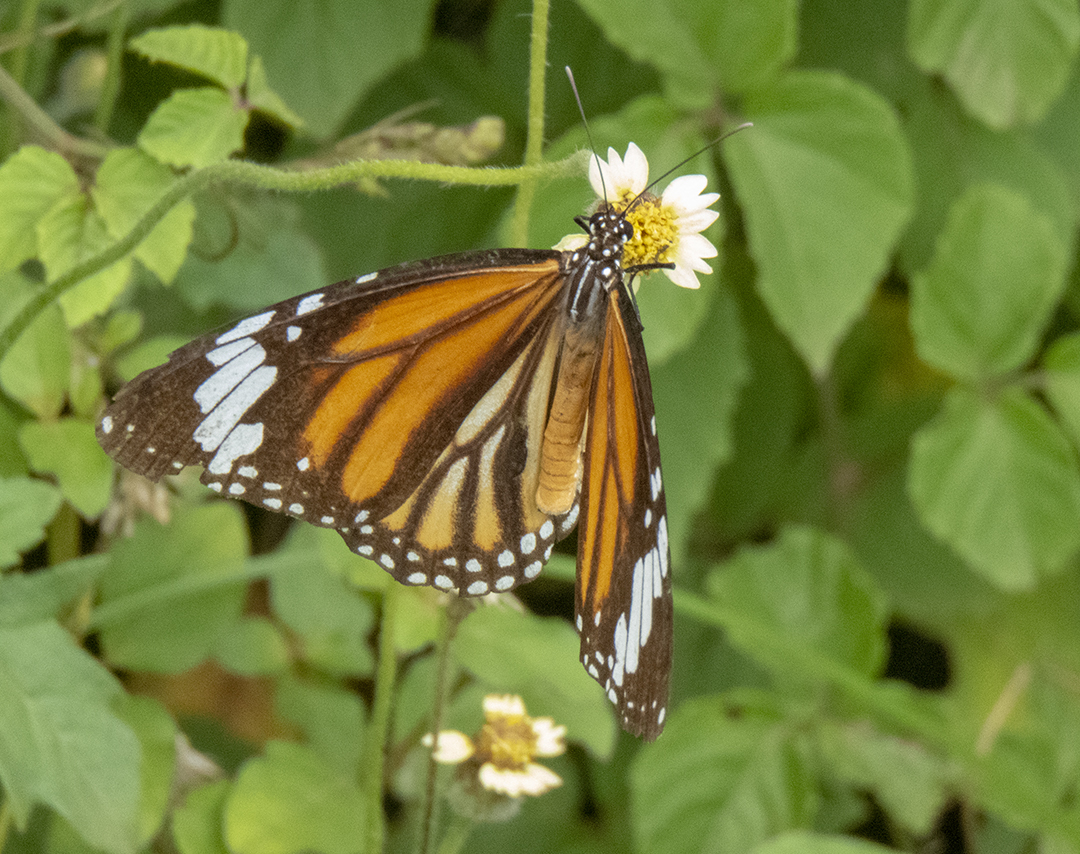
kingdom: Animalia
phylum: Arthropoda
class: Insecta
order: Lepidoptera
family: Nymphalidae
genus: Danaus
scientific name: Danaus genutia
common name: Common tiger butterfly
